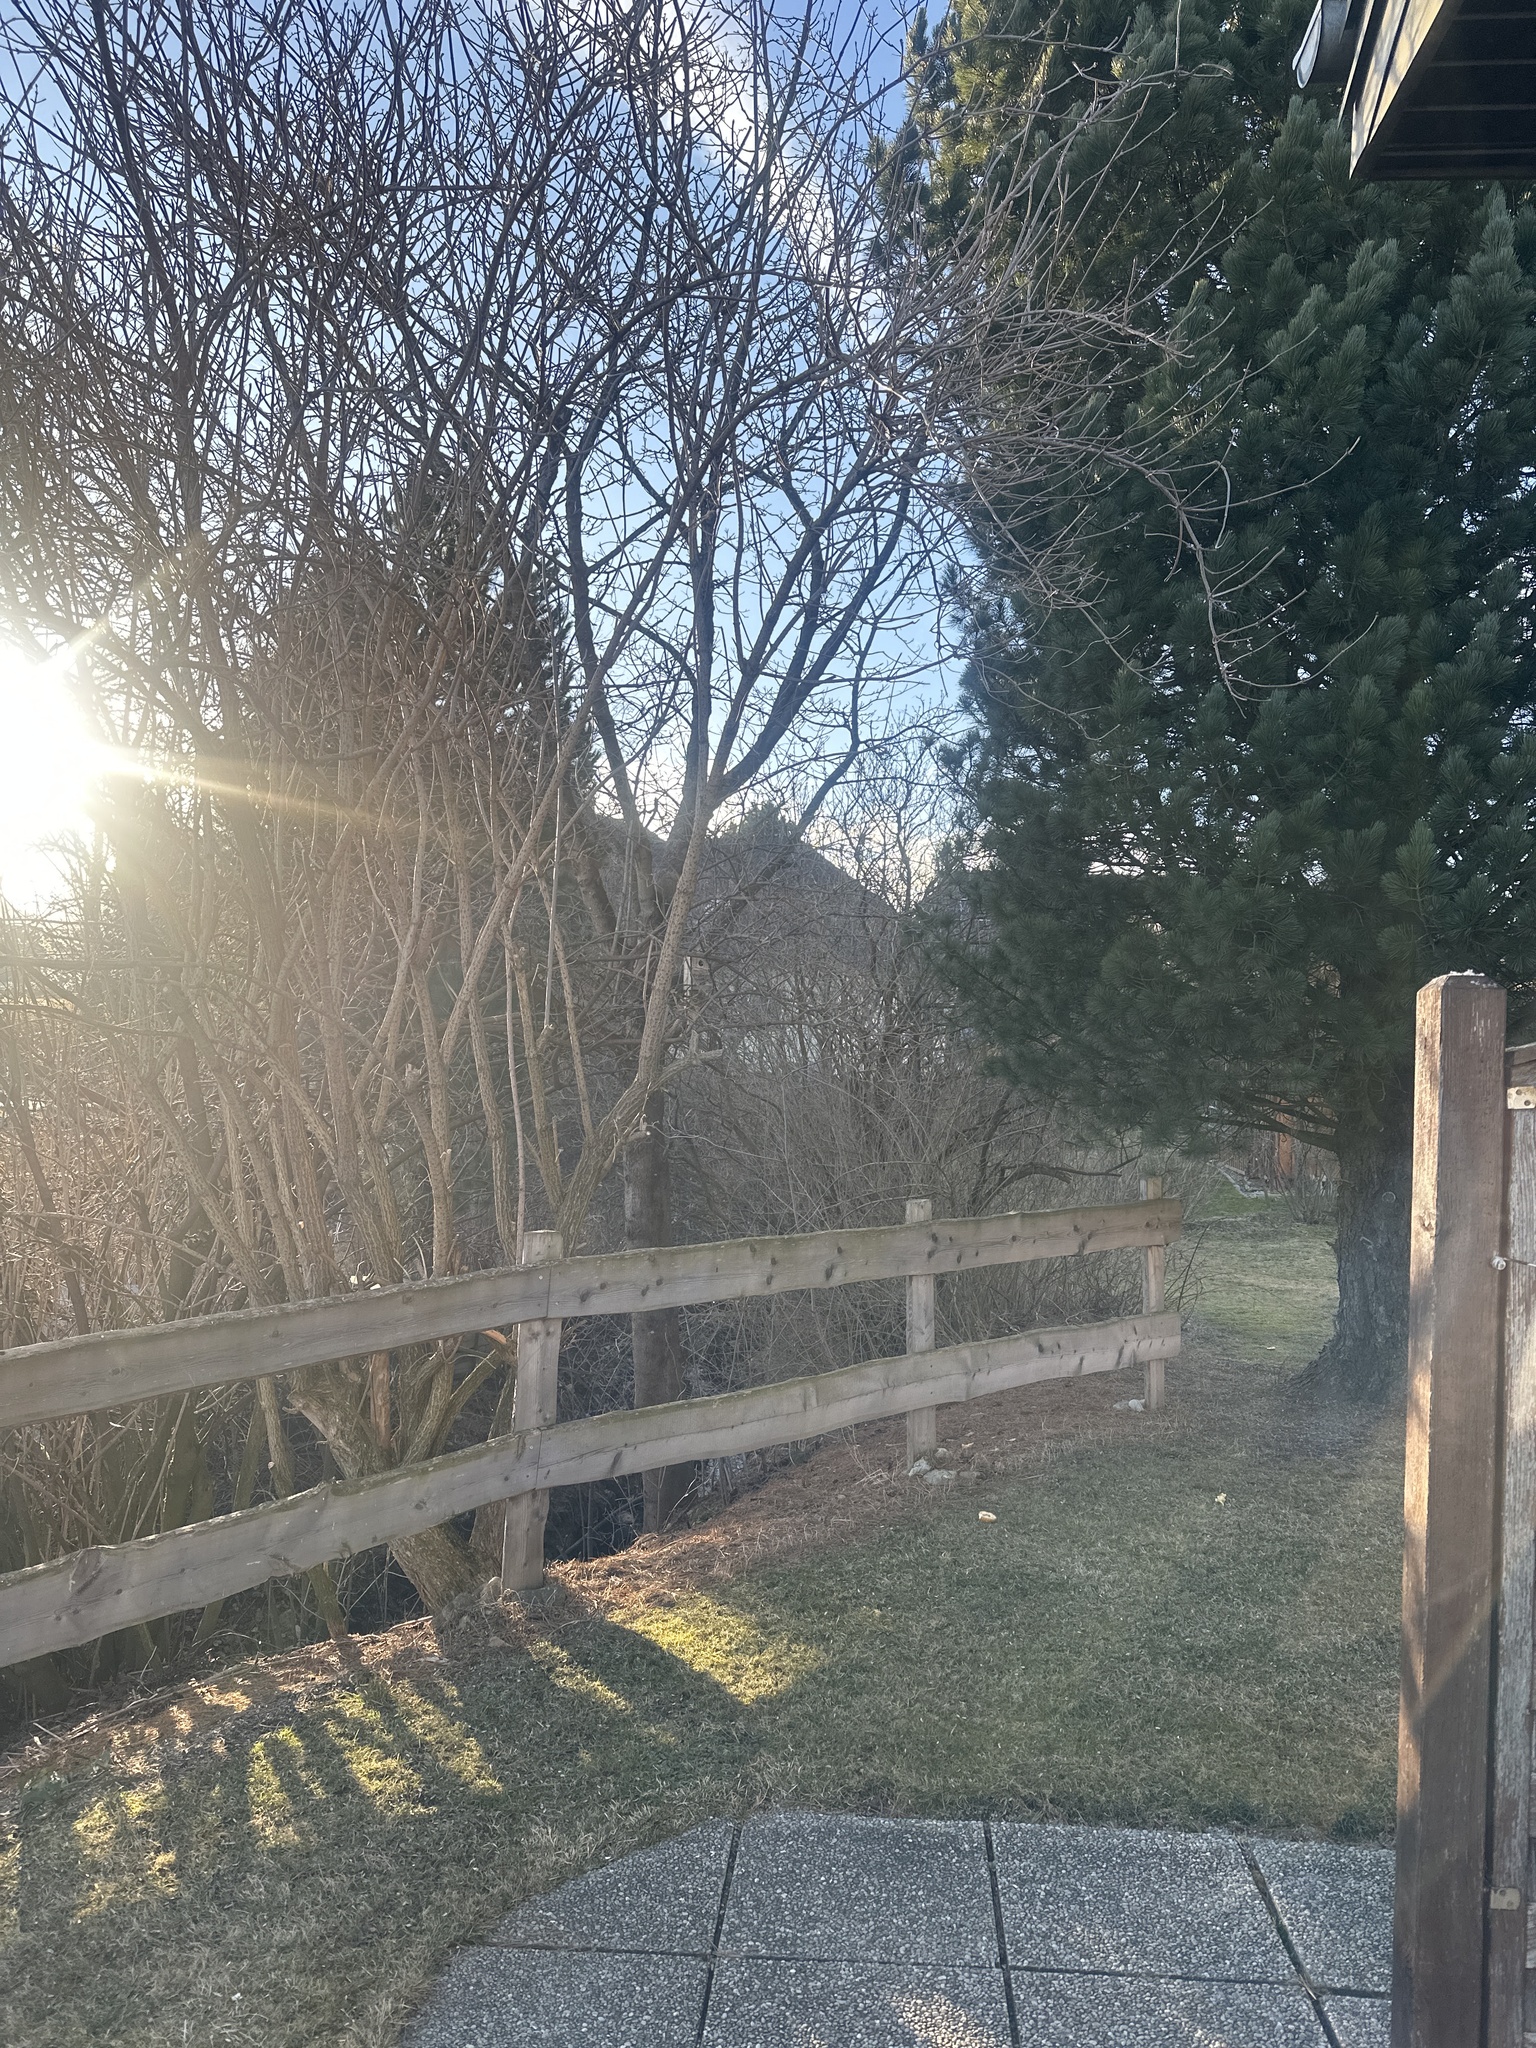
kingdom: Animalia
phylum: Chordata
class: Aves
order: Passeriformes
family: Fringillidae
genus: Spinus
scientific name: Spinus spinus
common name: Eurasian siskin
